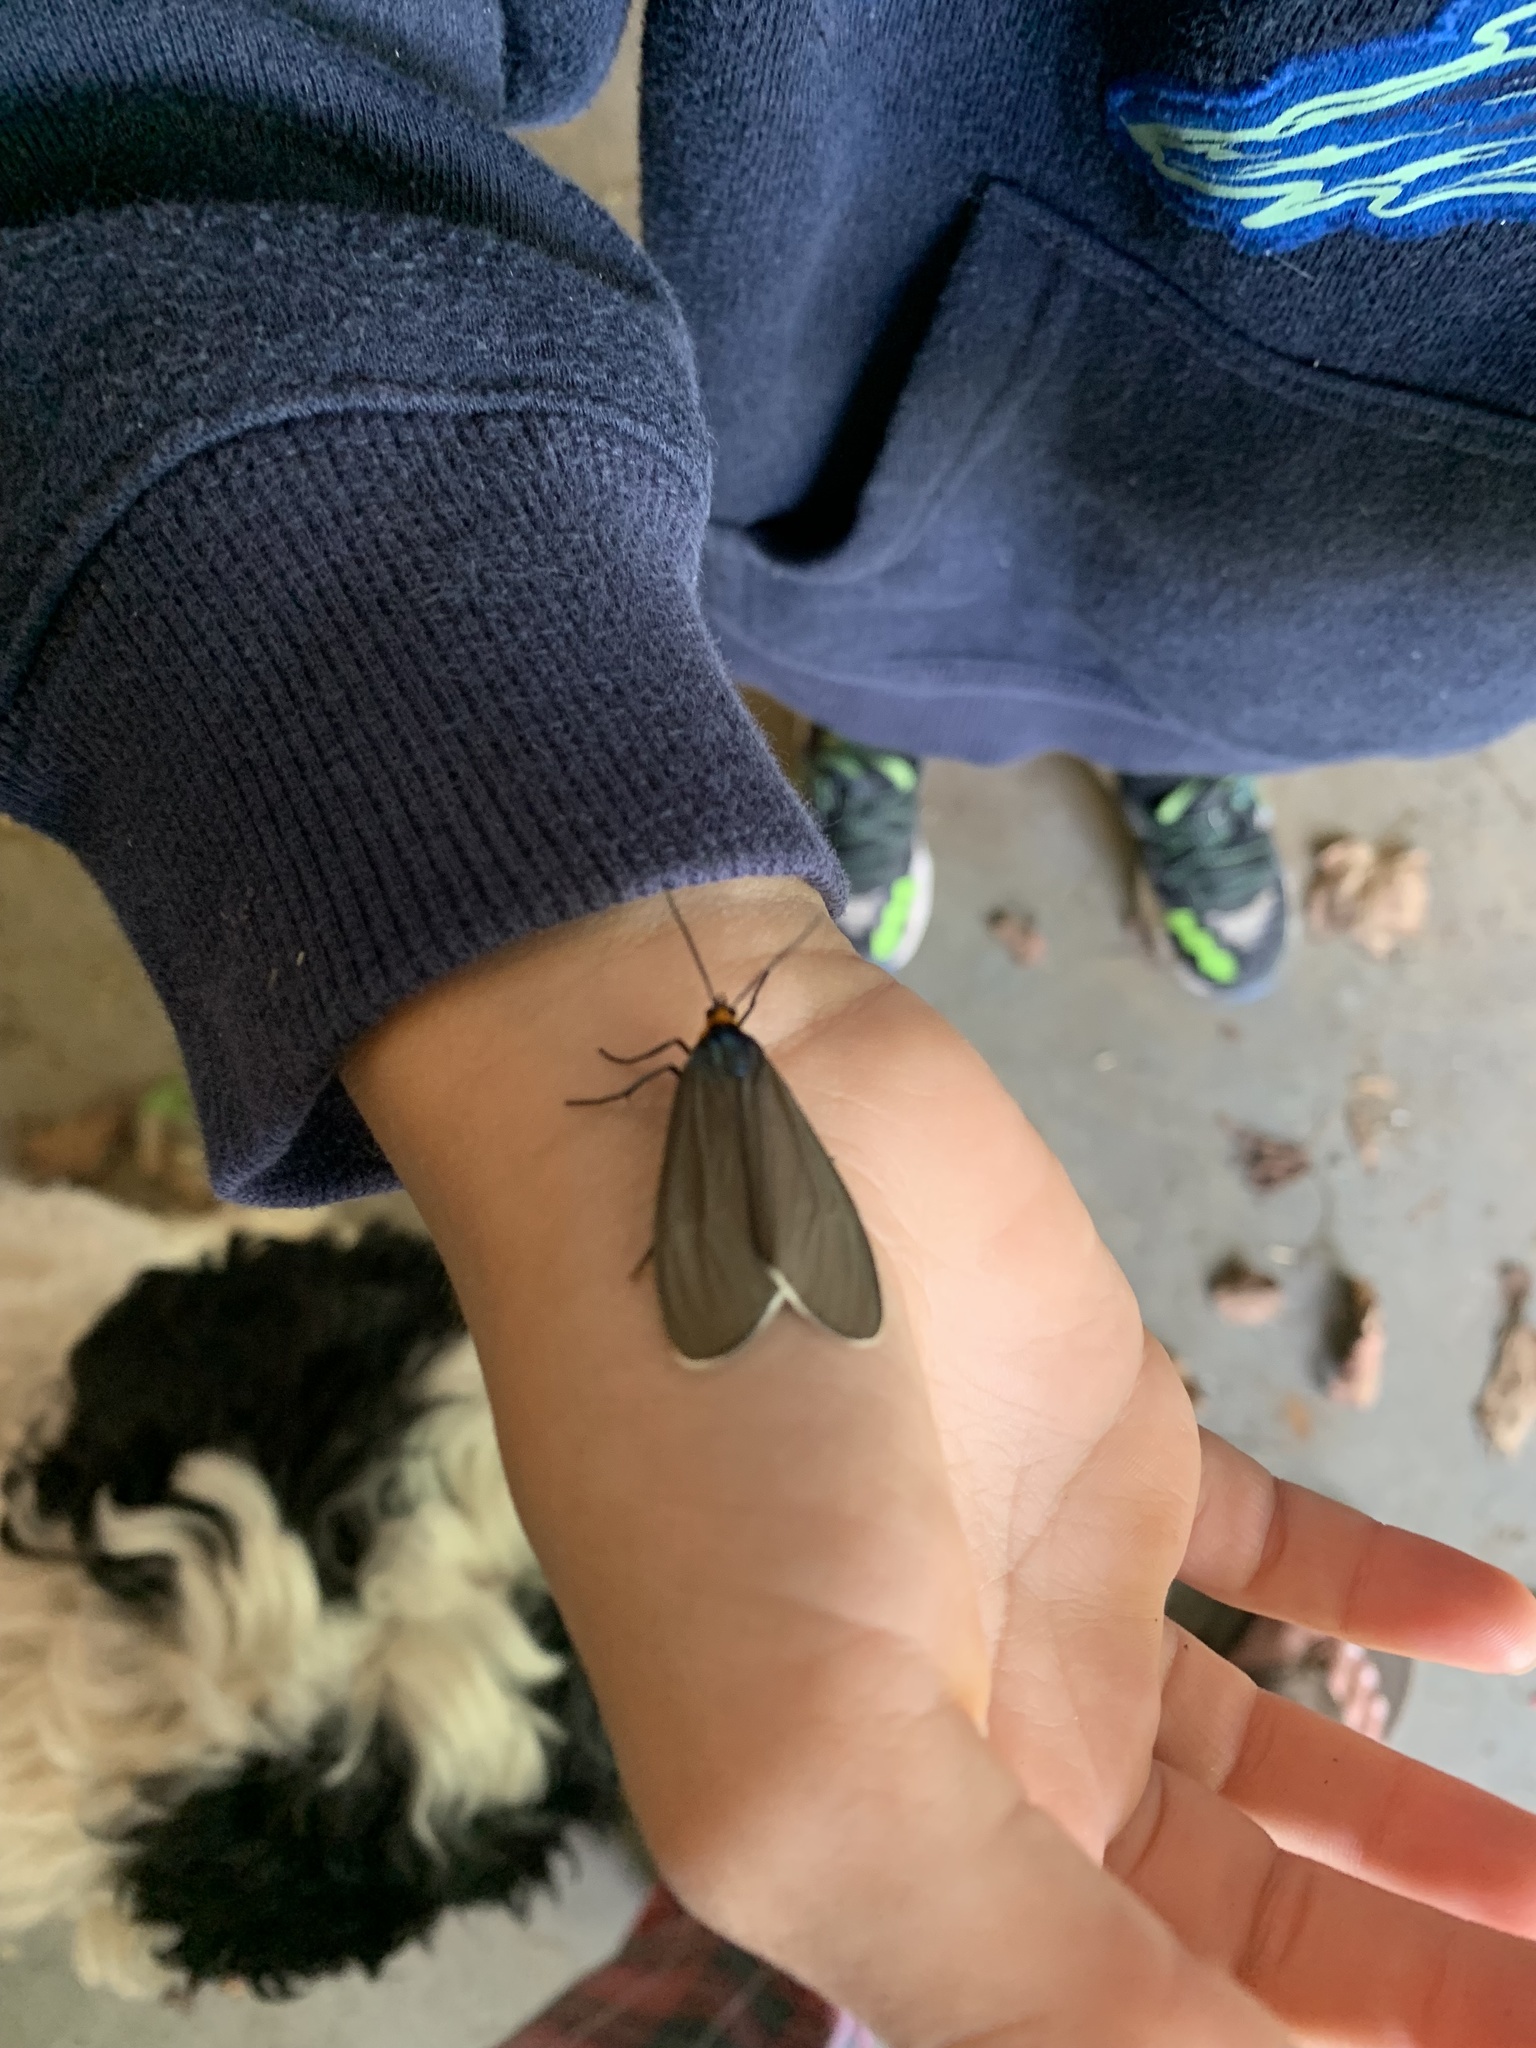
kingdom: Animalia
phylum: Arthropoda
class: Insecta
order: Lepidoptera
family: Erebidae
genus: Ctenucha
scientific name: Ctenucha virginica
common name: Virginia ctenucha moth
